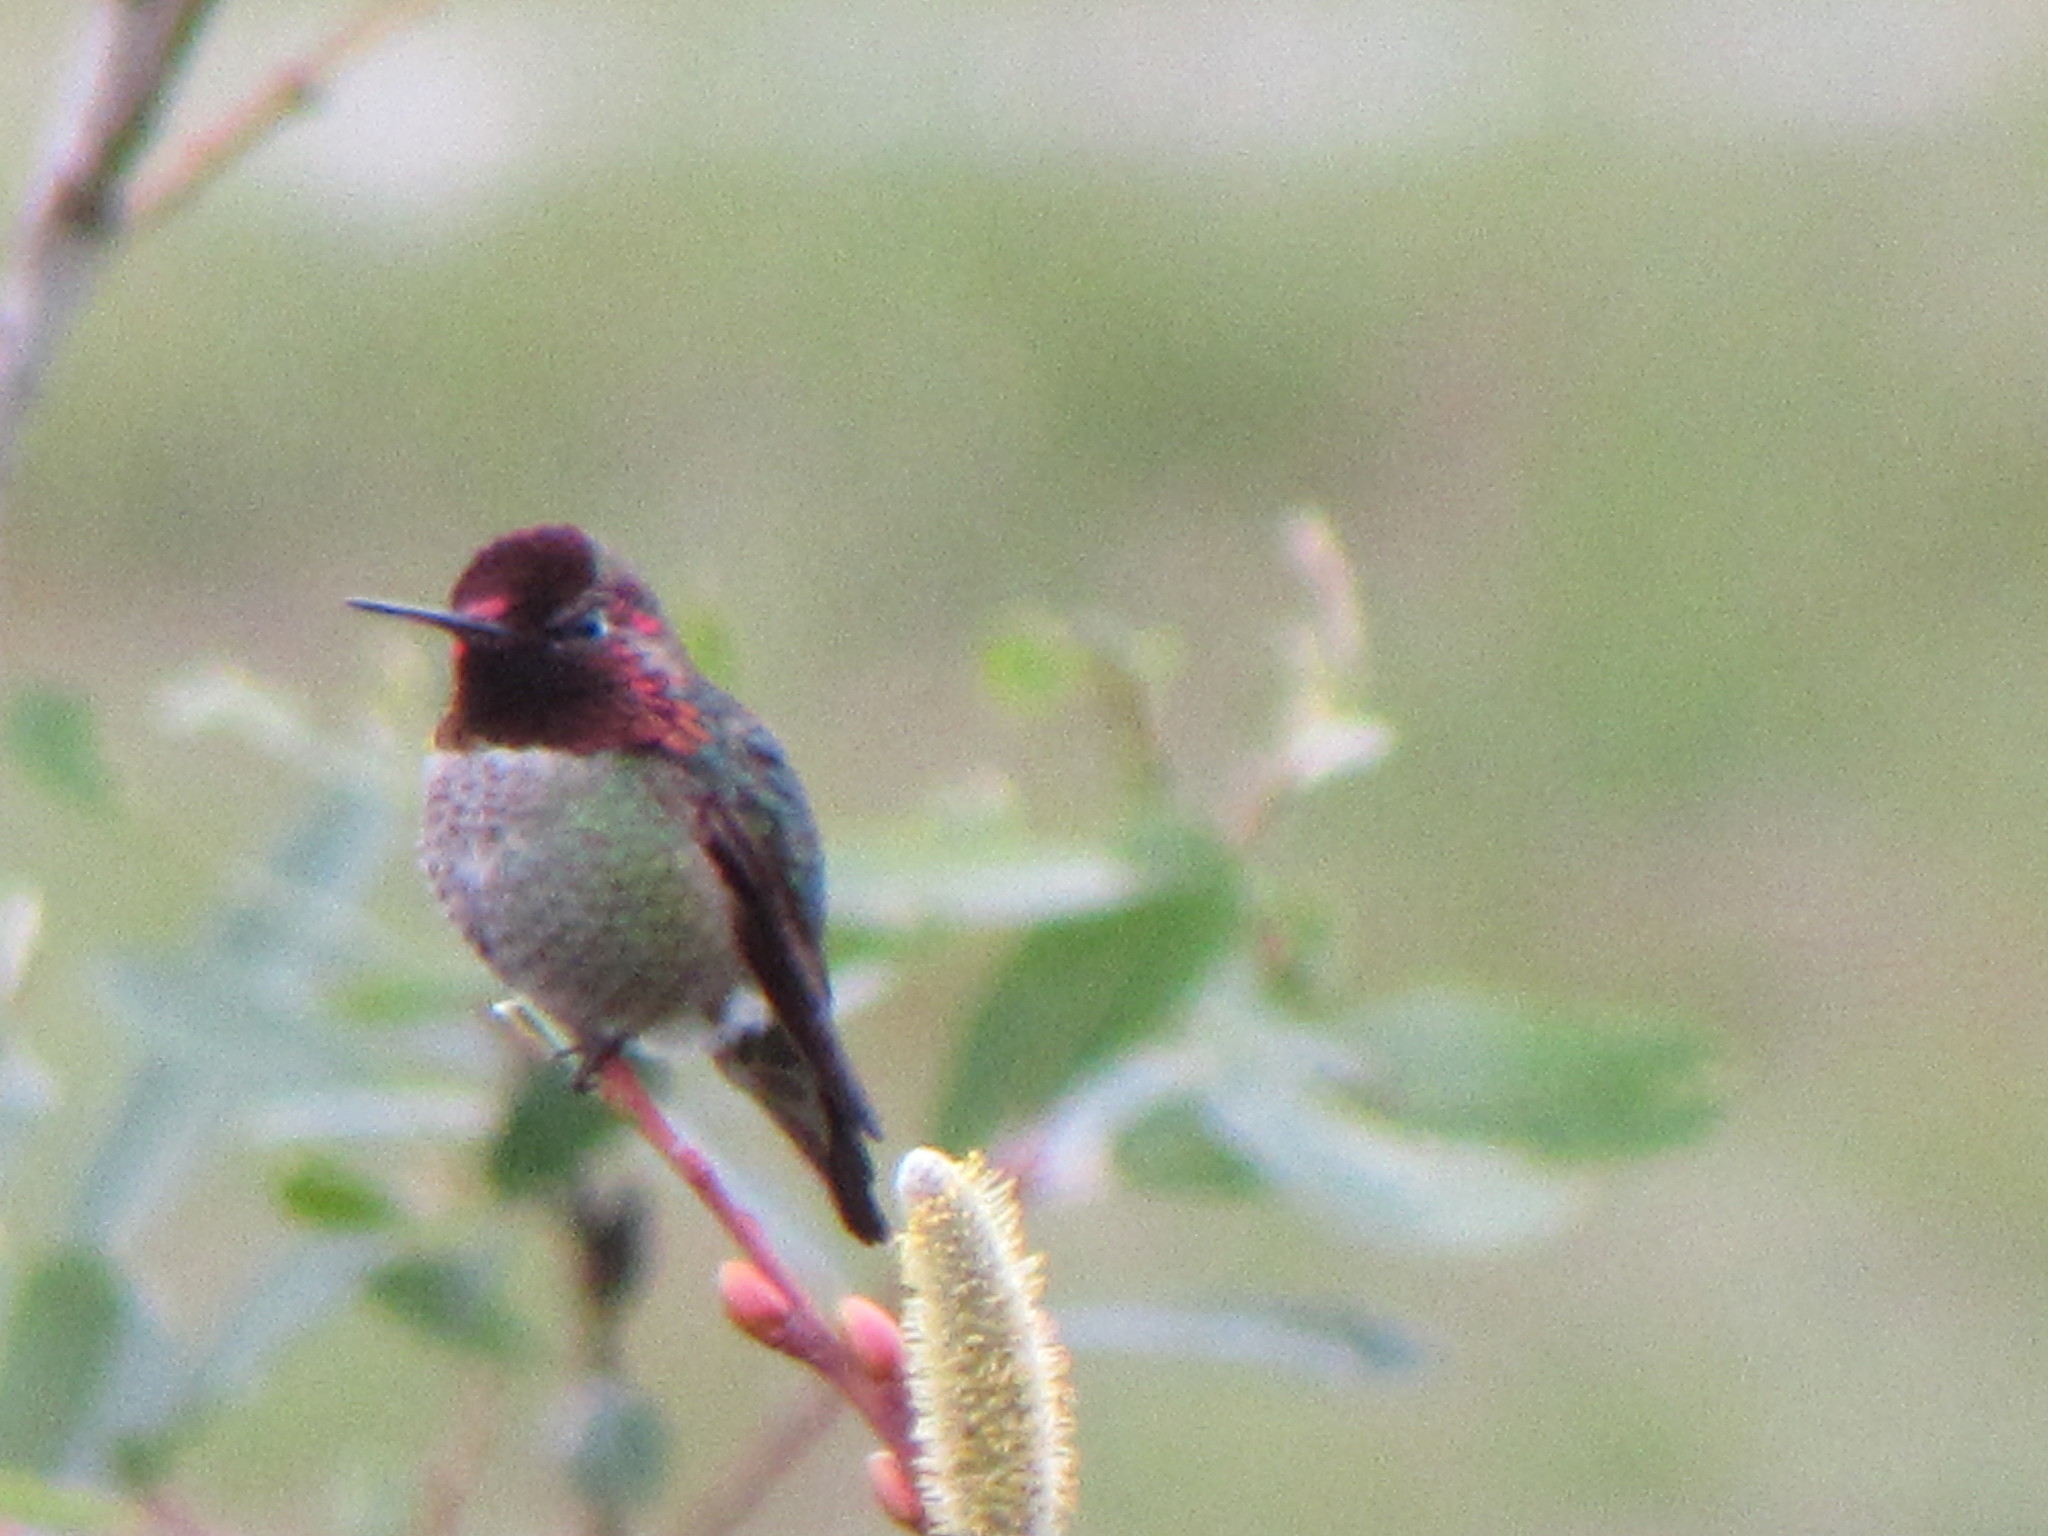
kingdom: Animalia
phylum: Chordata
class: Aves
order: Apodiformes
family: Trochilidae
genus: Calypte
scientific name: Calypte anna
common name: Anna's hummingbird
